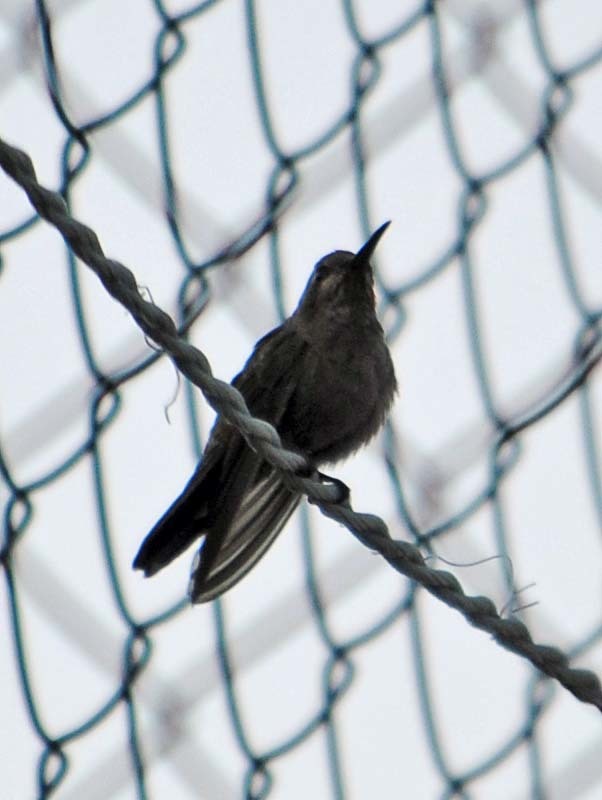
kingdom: Animalia
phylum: Chordata
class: Aves
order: Apodiformes
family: Trochilidae
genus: Cynanthus
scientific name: Cynanthus latirostris
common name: Broad-billed hummingbird
